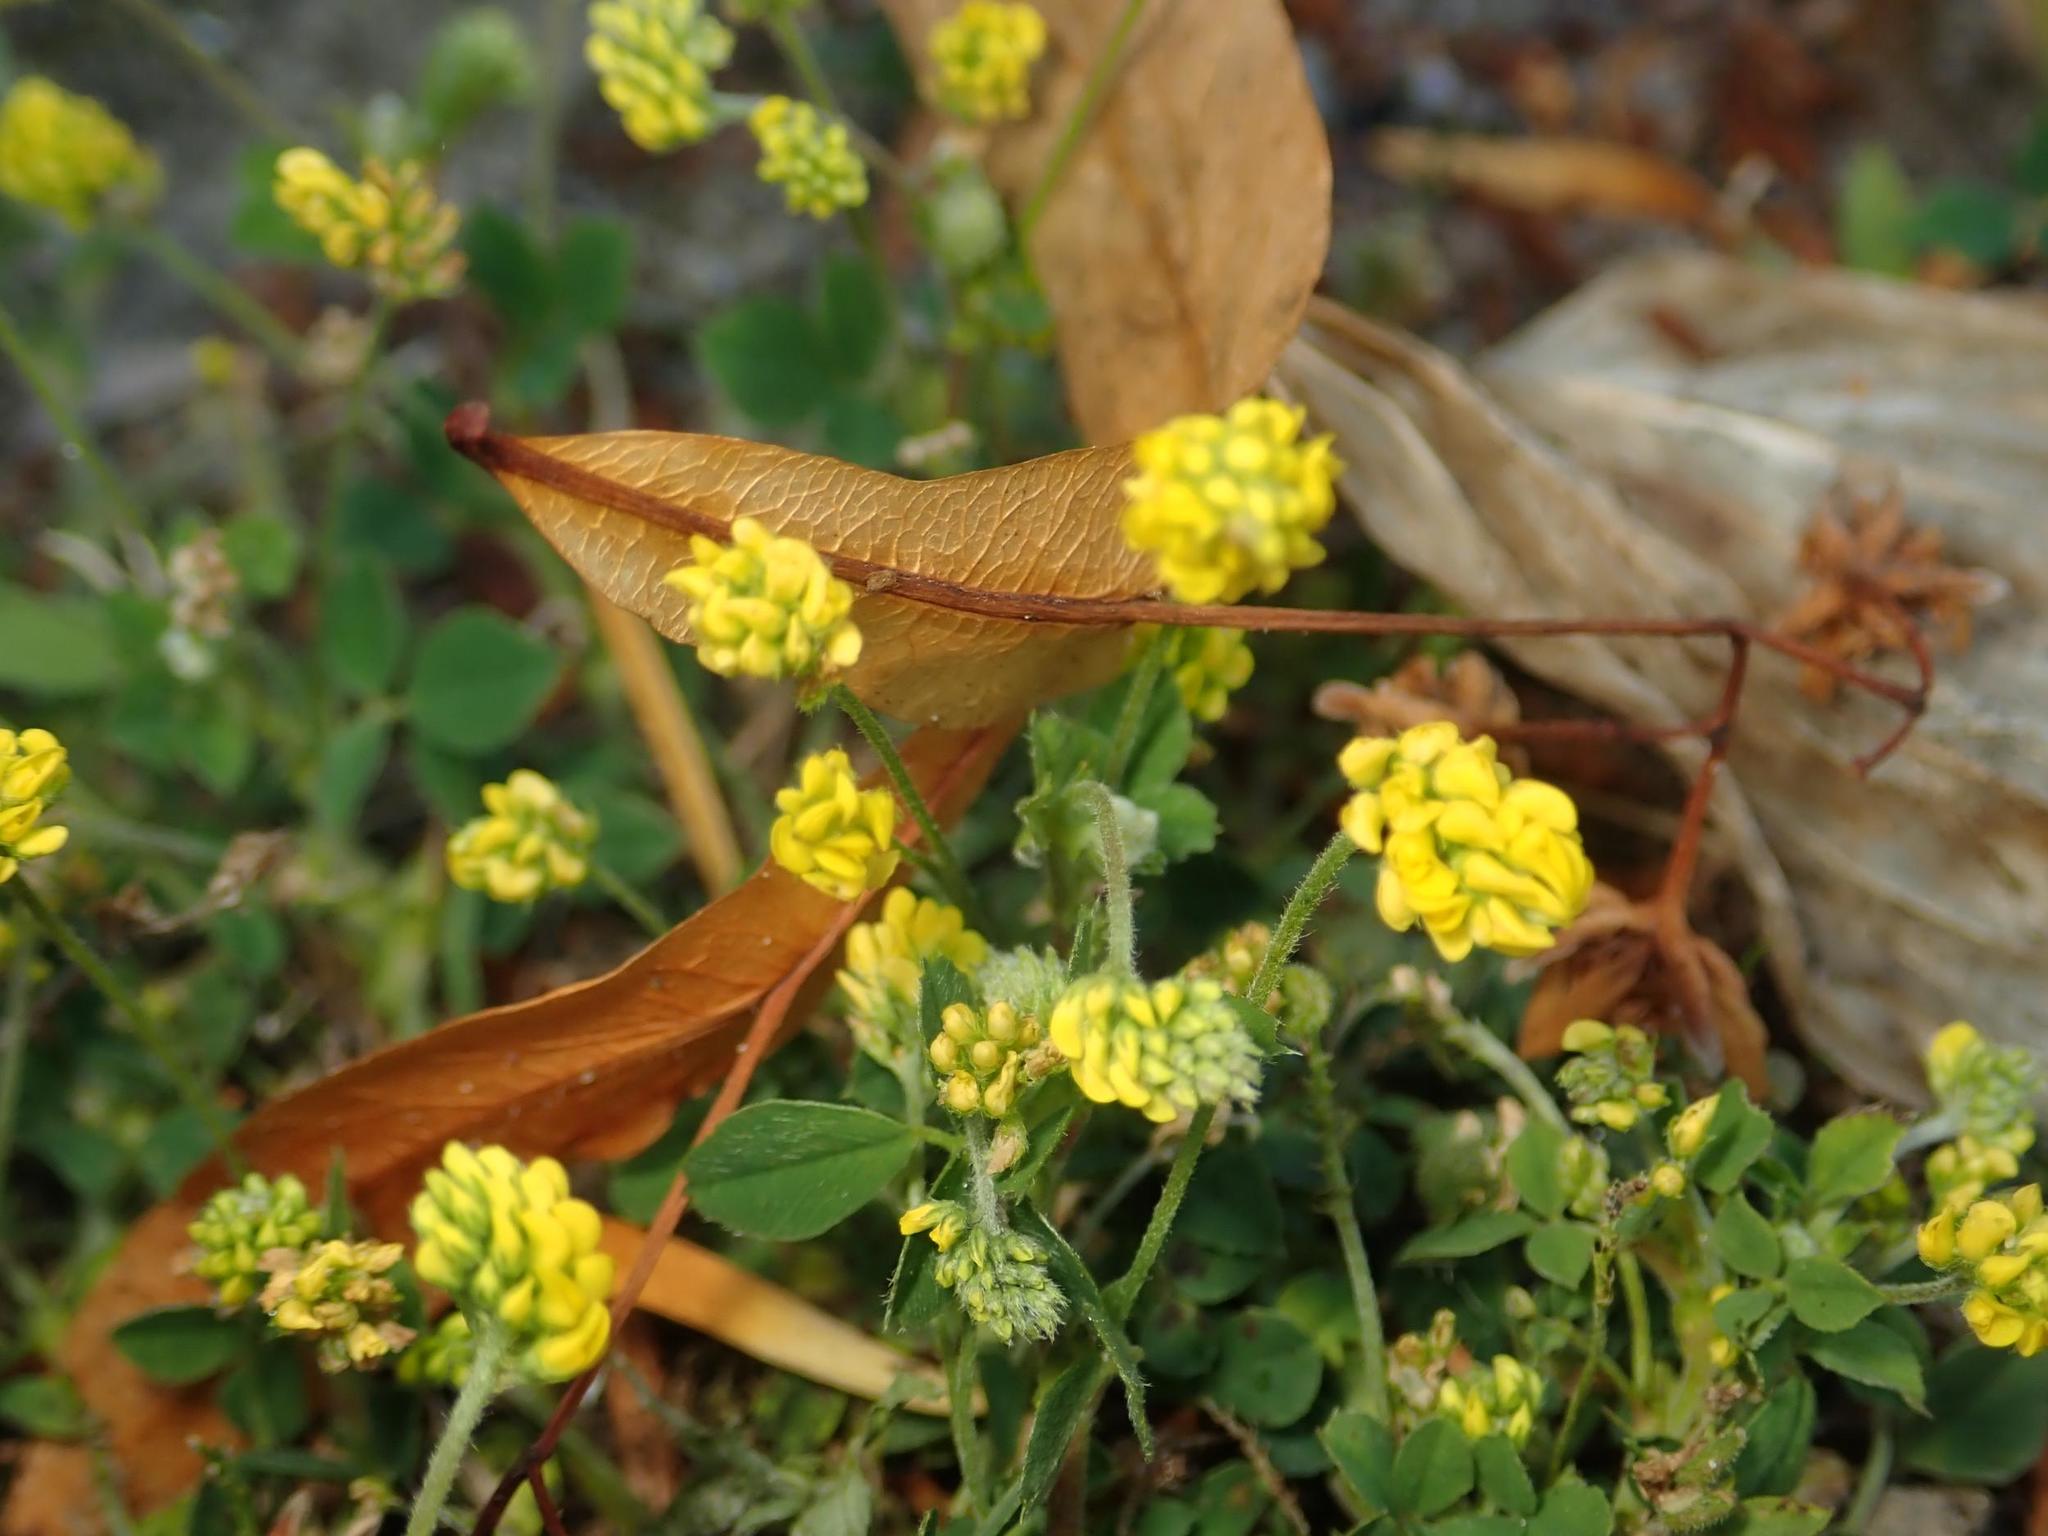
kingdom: Plantae
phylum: Tracheophyta
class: Magnoliopsida
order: Fabales
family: Fabaceae
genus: Medicago
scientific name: Medicago lupulina
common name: Black medick
